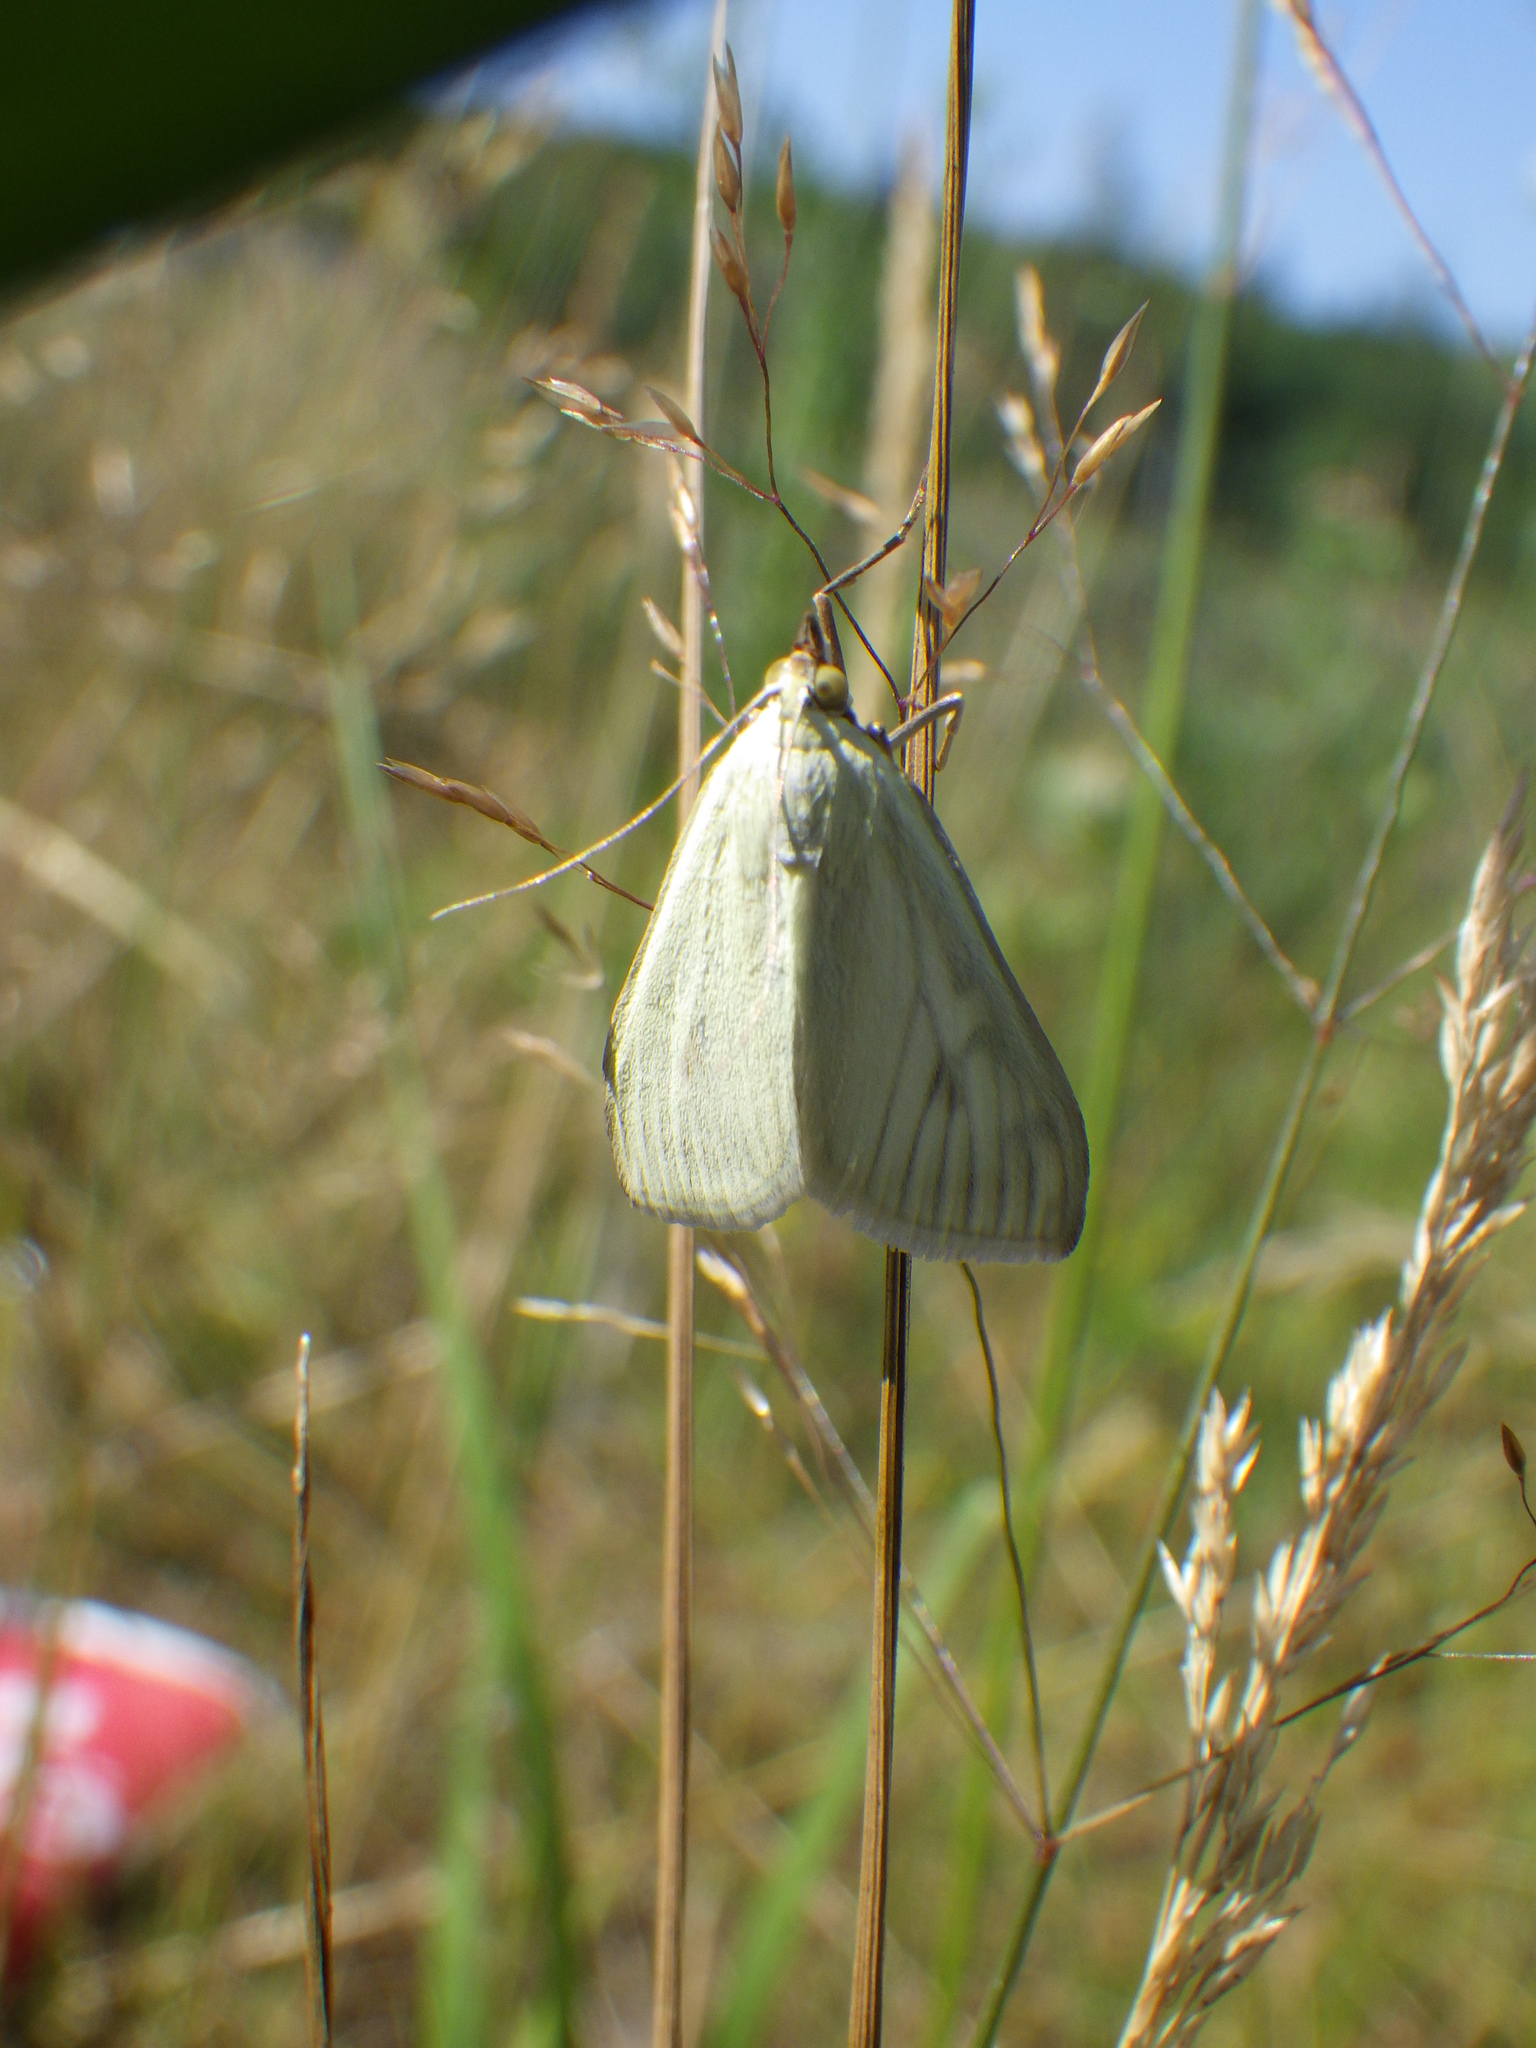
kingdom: Animalia
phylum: Arthropoda
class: Insecta
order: Lepidoptera
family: Crambidae
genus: Sitochroa
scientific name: Sitochroa palealis
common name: Greenish-yellow sitochroa moth
